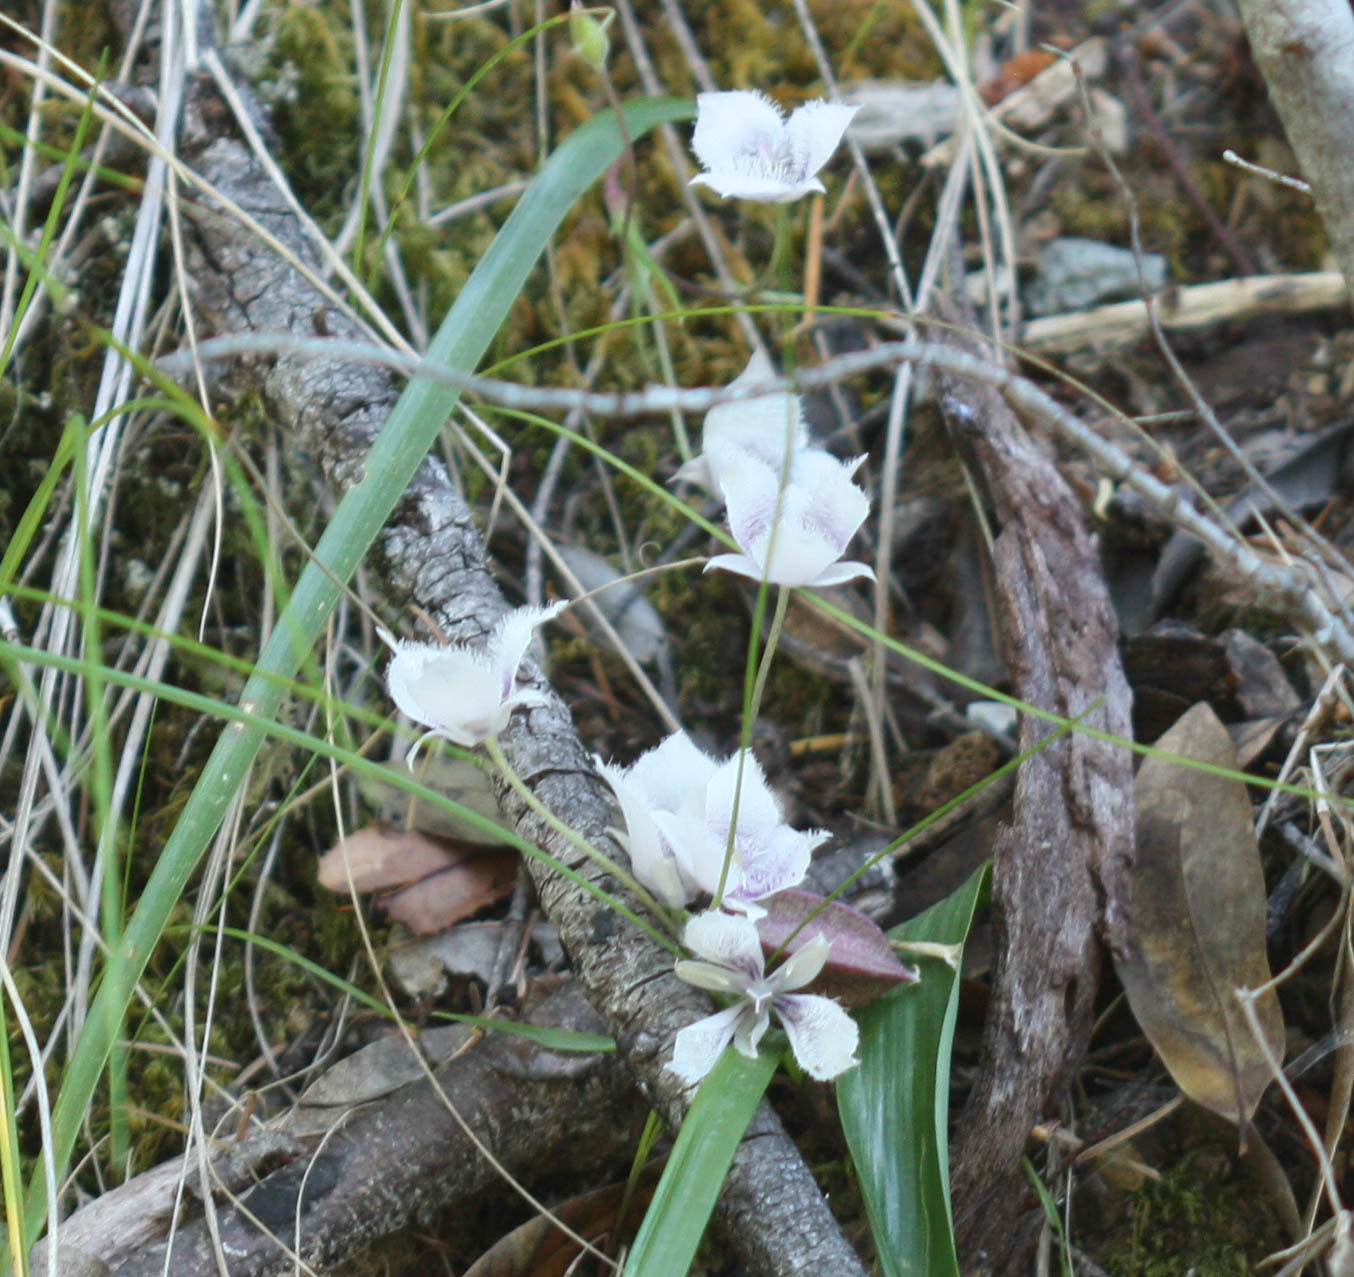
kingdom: Plantae
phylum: Tracheophyta
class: Liliopsida
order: Liliales
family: Liliaceae
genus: Calochortus
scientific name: Calochortus tolmiei
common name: Pussy-ears
